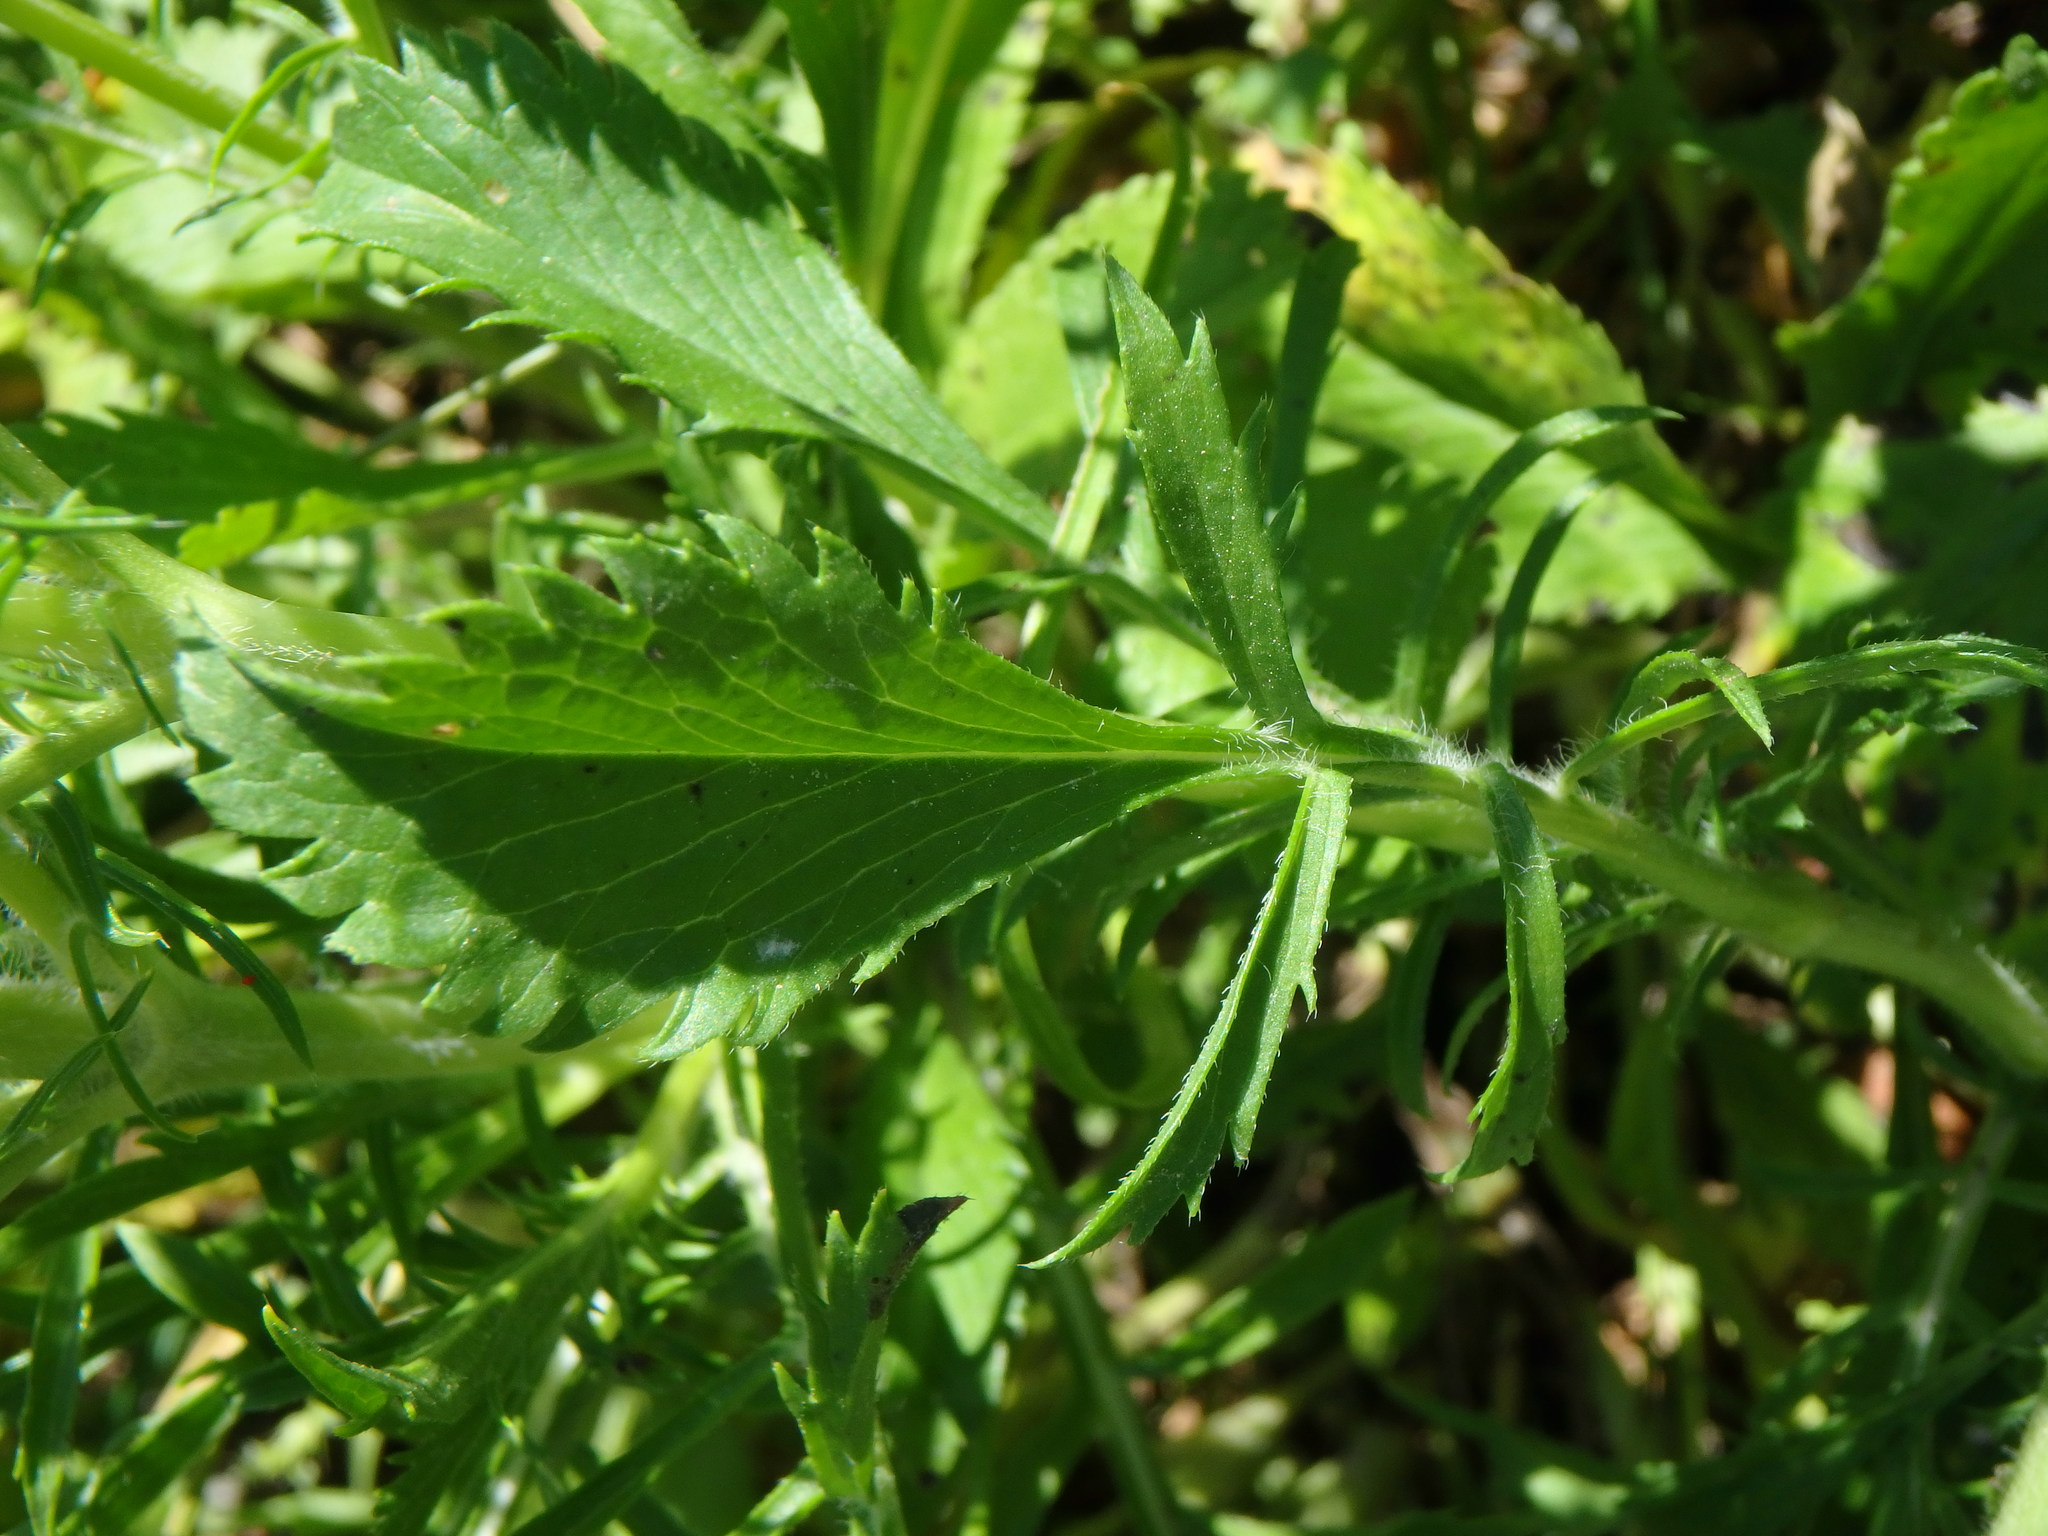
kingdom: Plantae
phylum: Tracheophyta
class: Magnoliopsida
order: Dipsacales
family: Caprifoliaceae
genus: Sixalix
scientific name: Sixalix atropurpurea
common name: Sweet scabious
